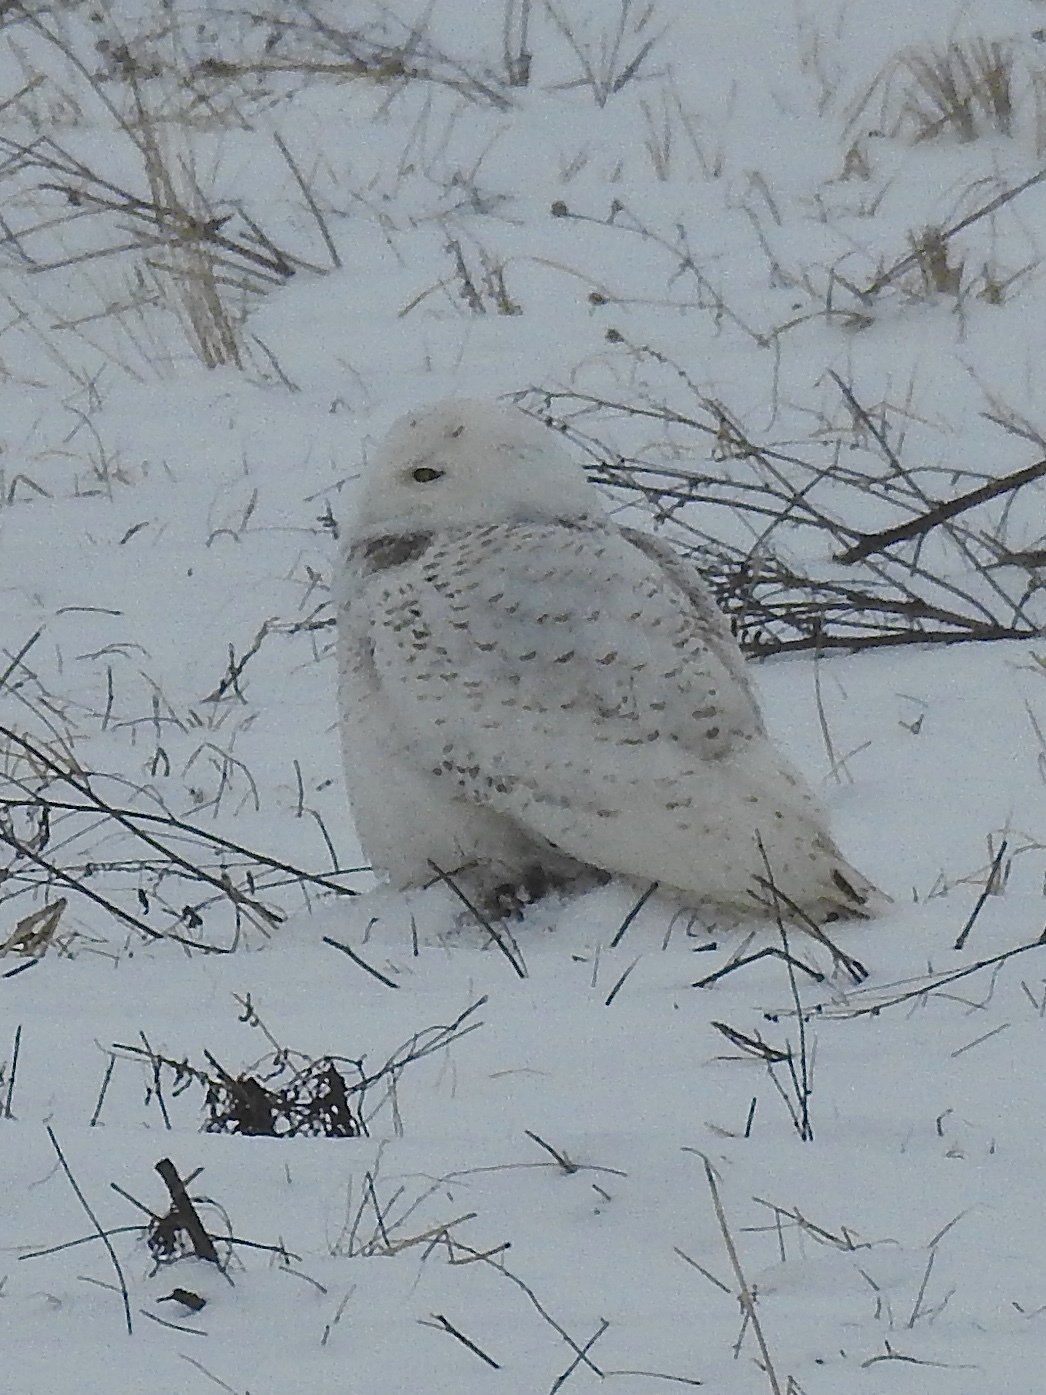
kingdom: Animalia
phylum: Chordata
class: Aves
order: Strigiformes
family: Strigidae
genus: Bubo
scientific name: Bubo scandiacus
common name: Snowy owl
